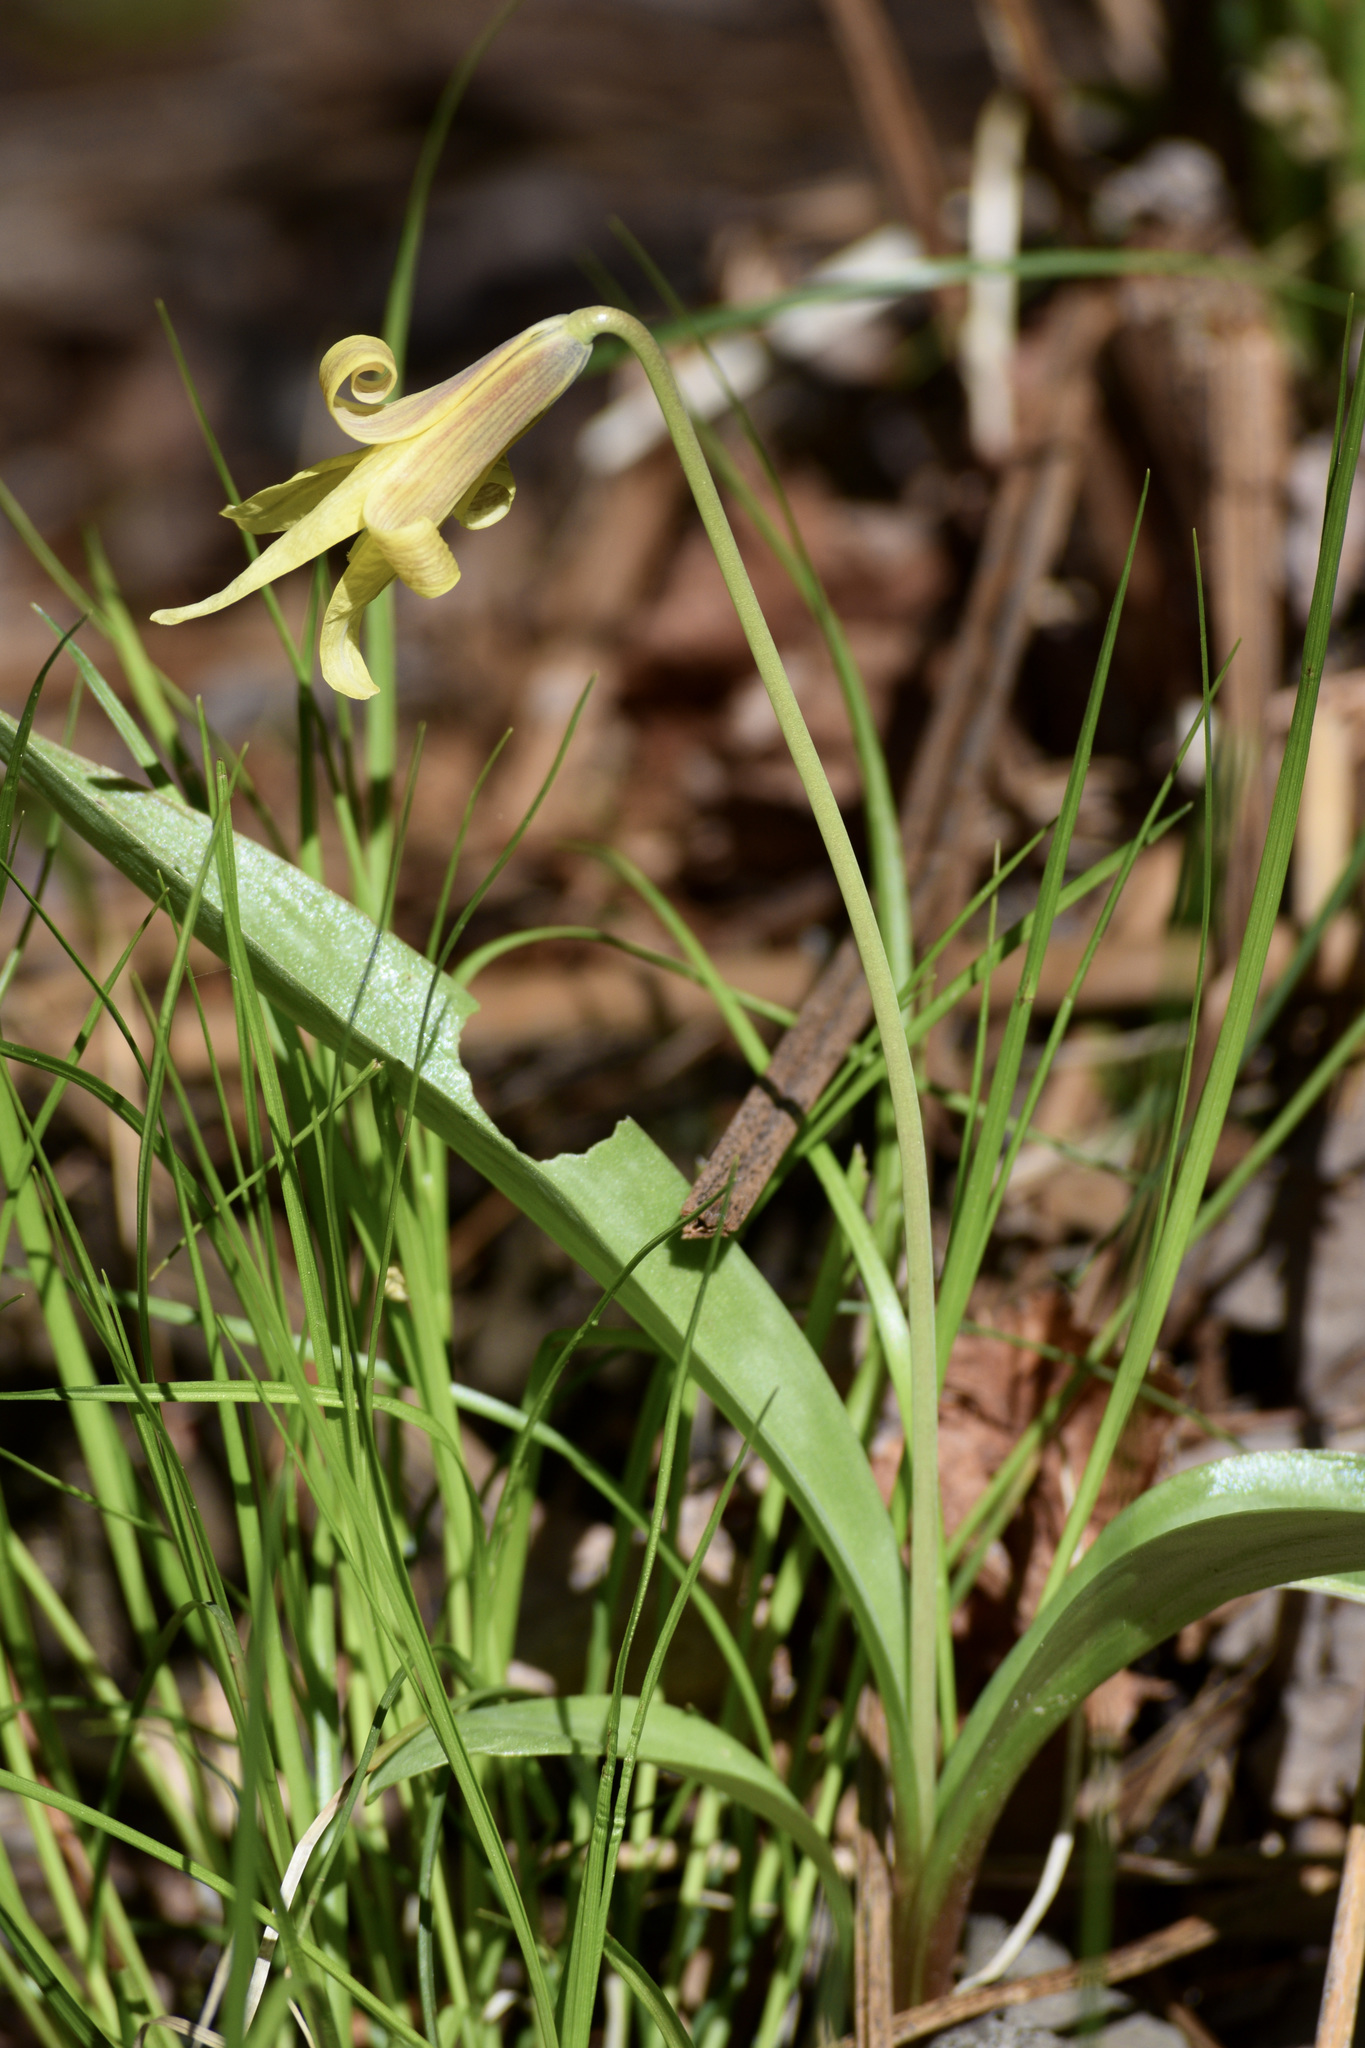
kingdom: Plantae
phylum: Tracheophyta
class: Liliopsida
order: Liliales
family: Liliaceae
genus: Erythronium
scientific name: Erythronium americanum
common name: Yellow adder's-tongue
